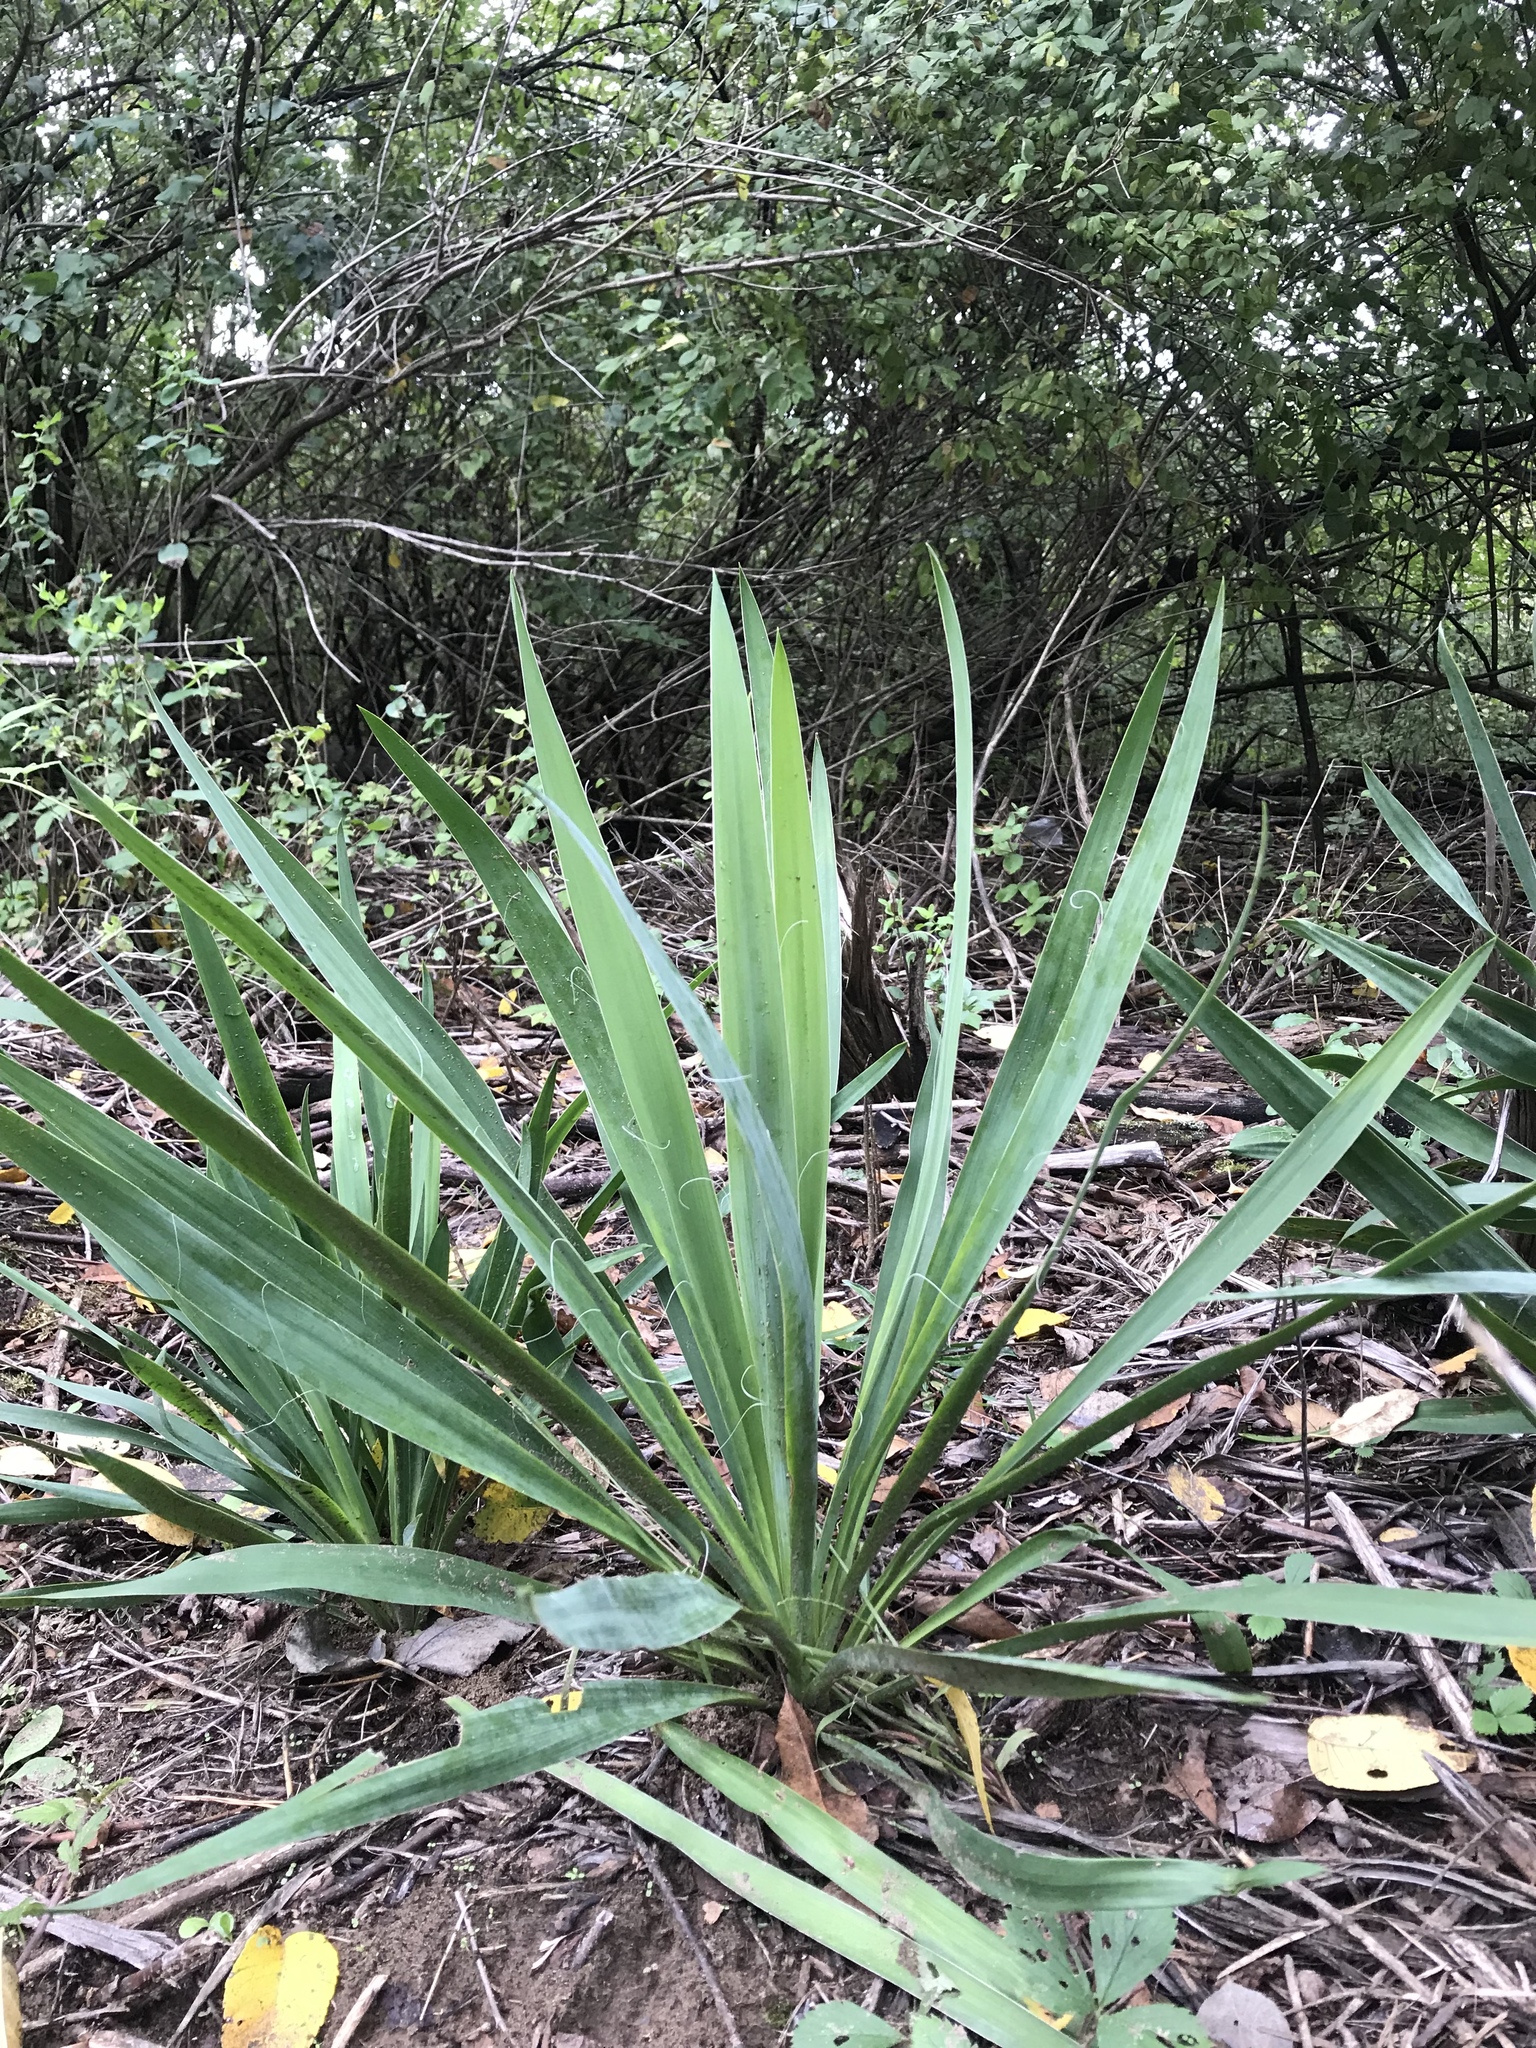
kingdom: Plantae
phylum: Tracheophyta
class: Liliopsida
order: Asparagales
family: Asparagaceae
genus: Yucca
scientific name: Yucca filamentosa
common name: Adam's-needle
